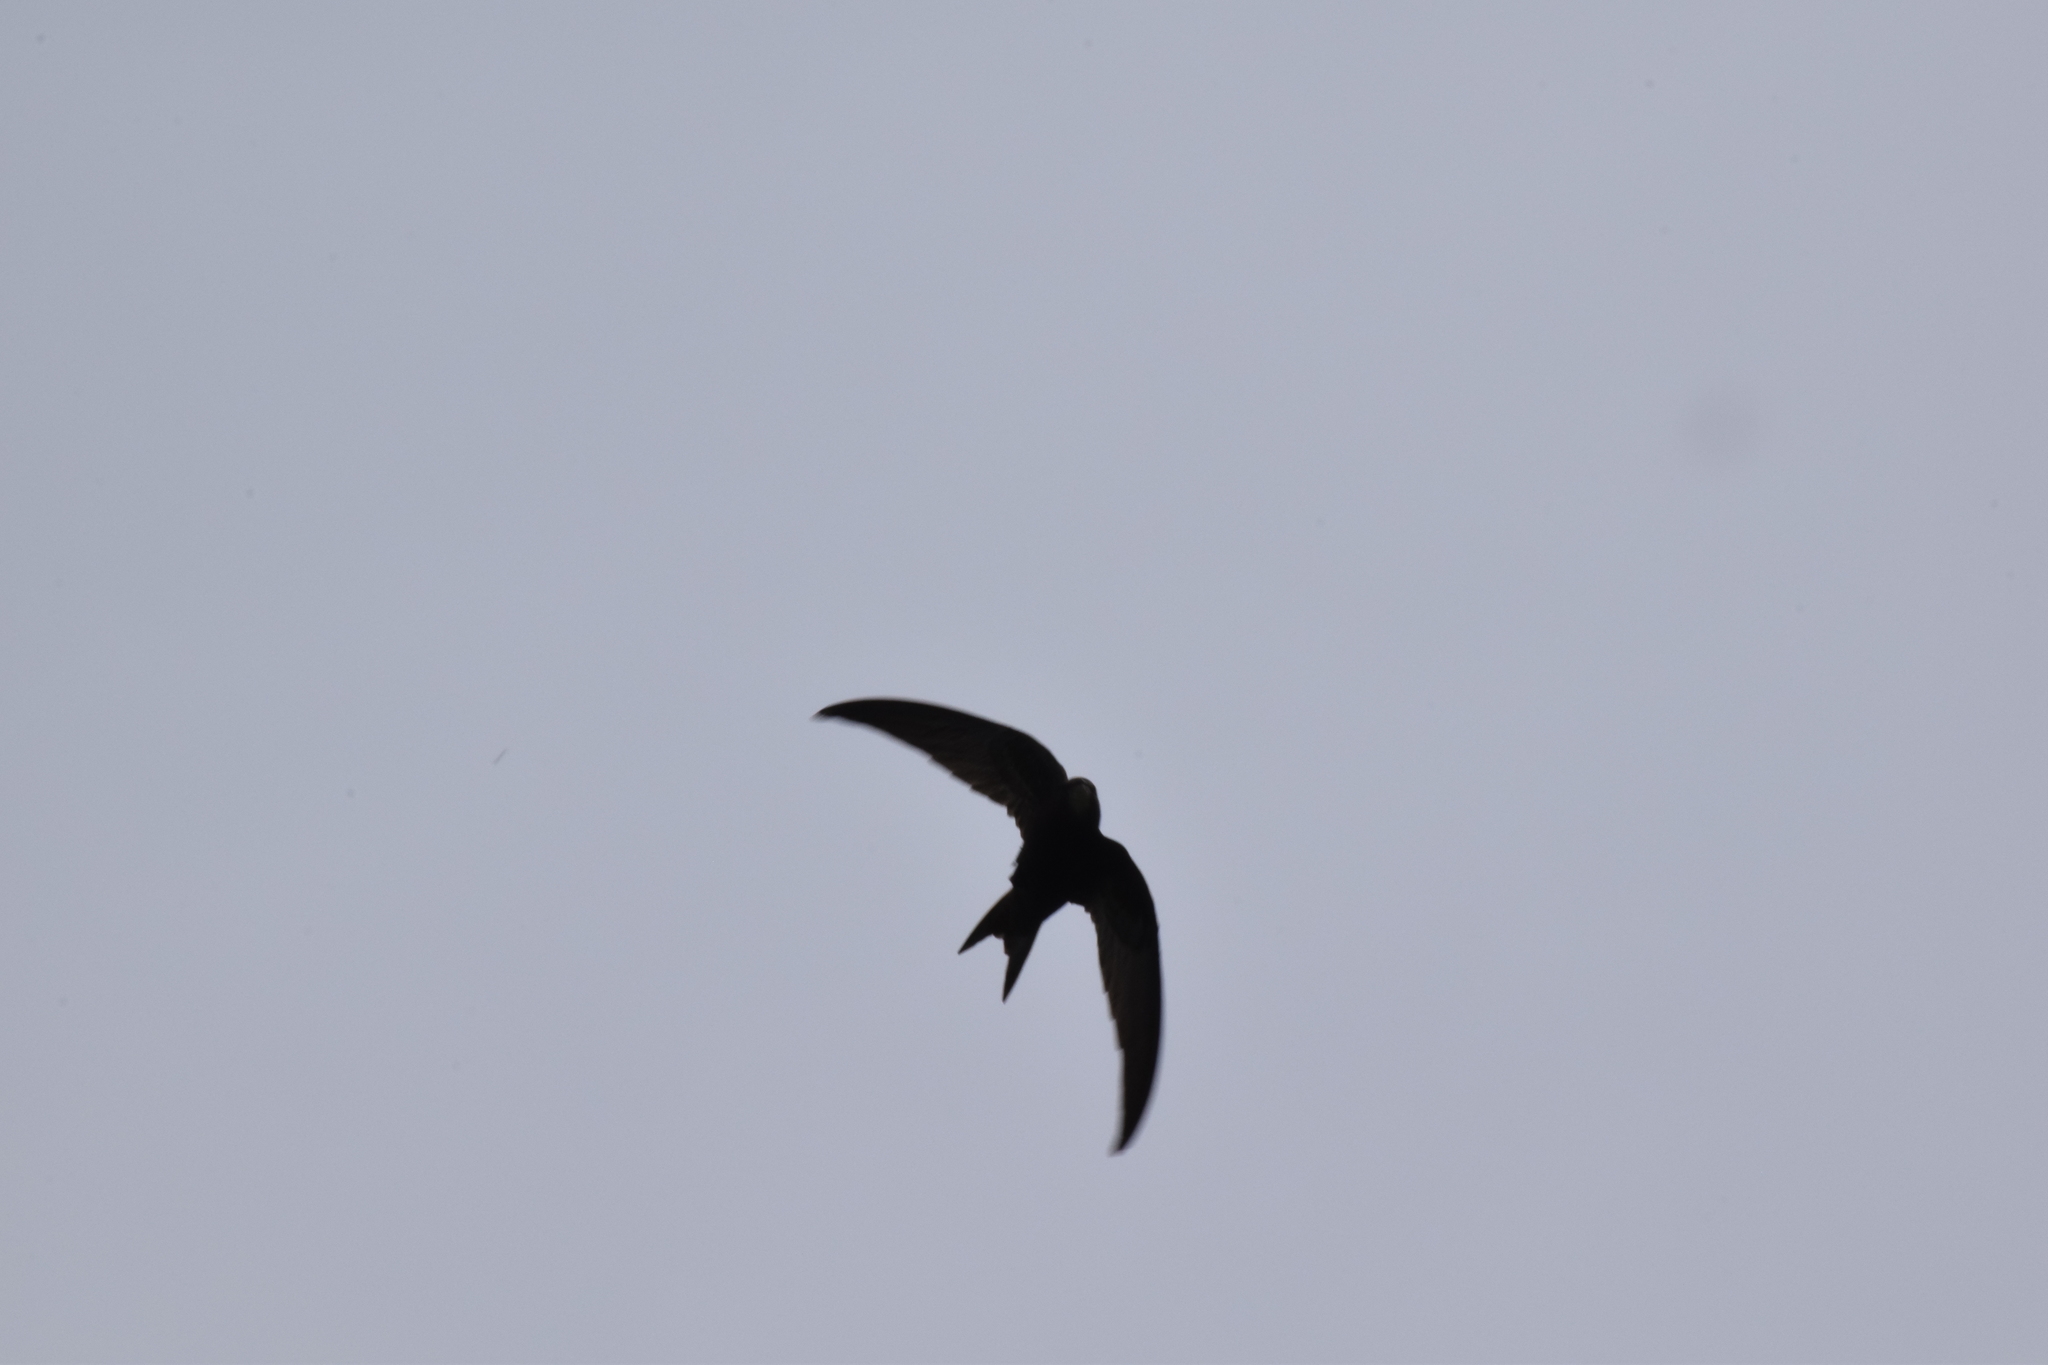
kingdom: Animalia
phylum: Chordata
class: Aves
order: Apodiformes
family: Apodidae
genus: Apus
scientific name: Apus apus
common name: Common swift
